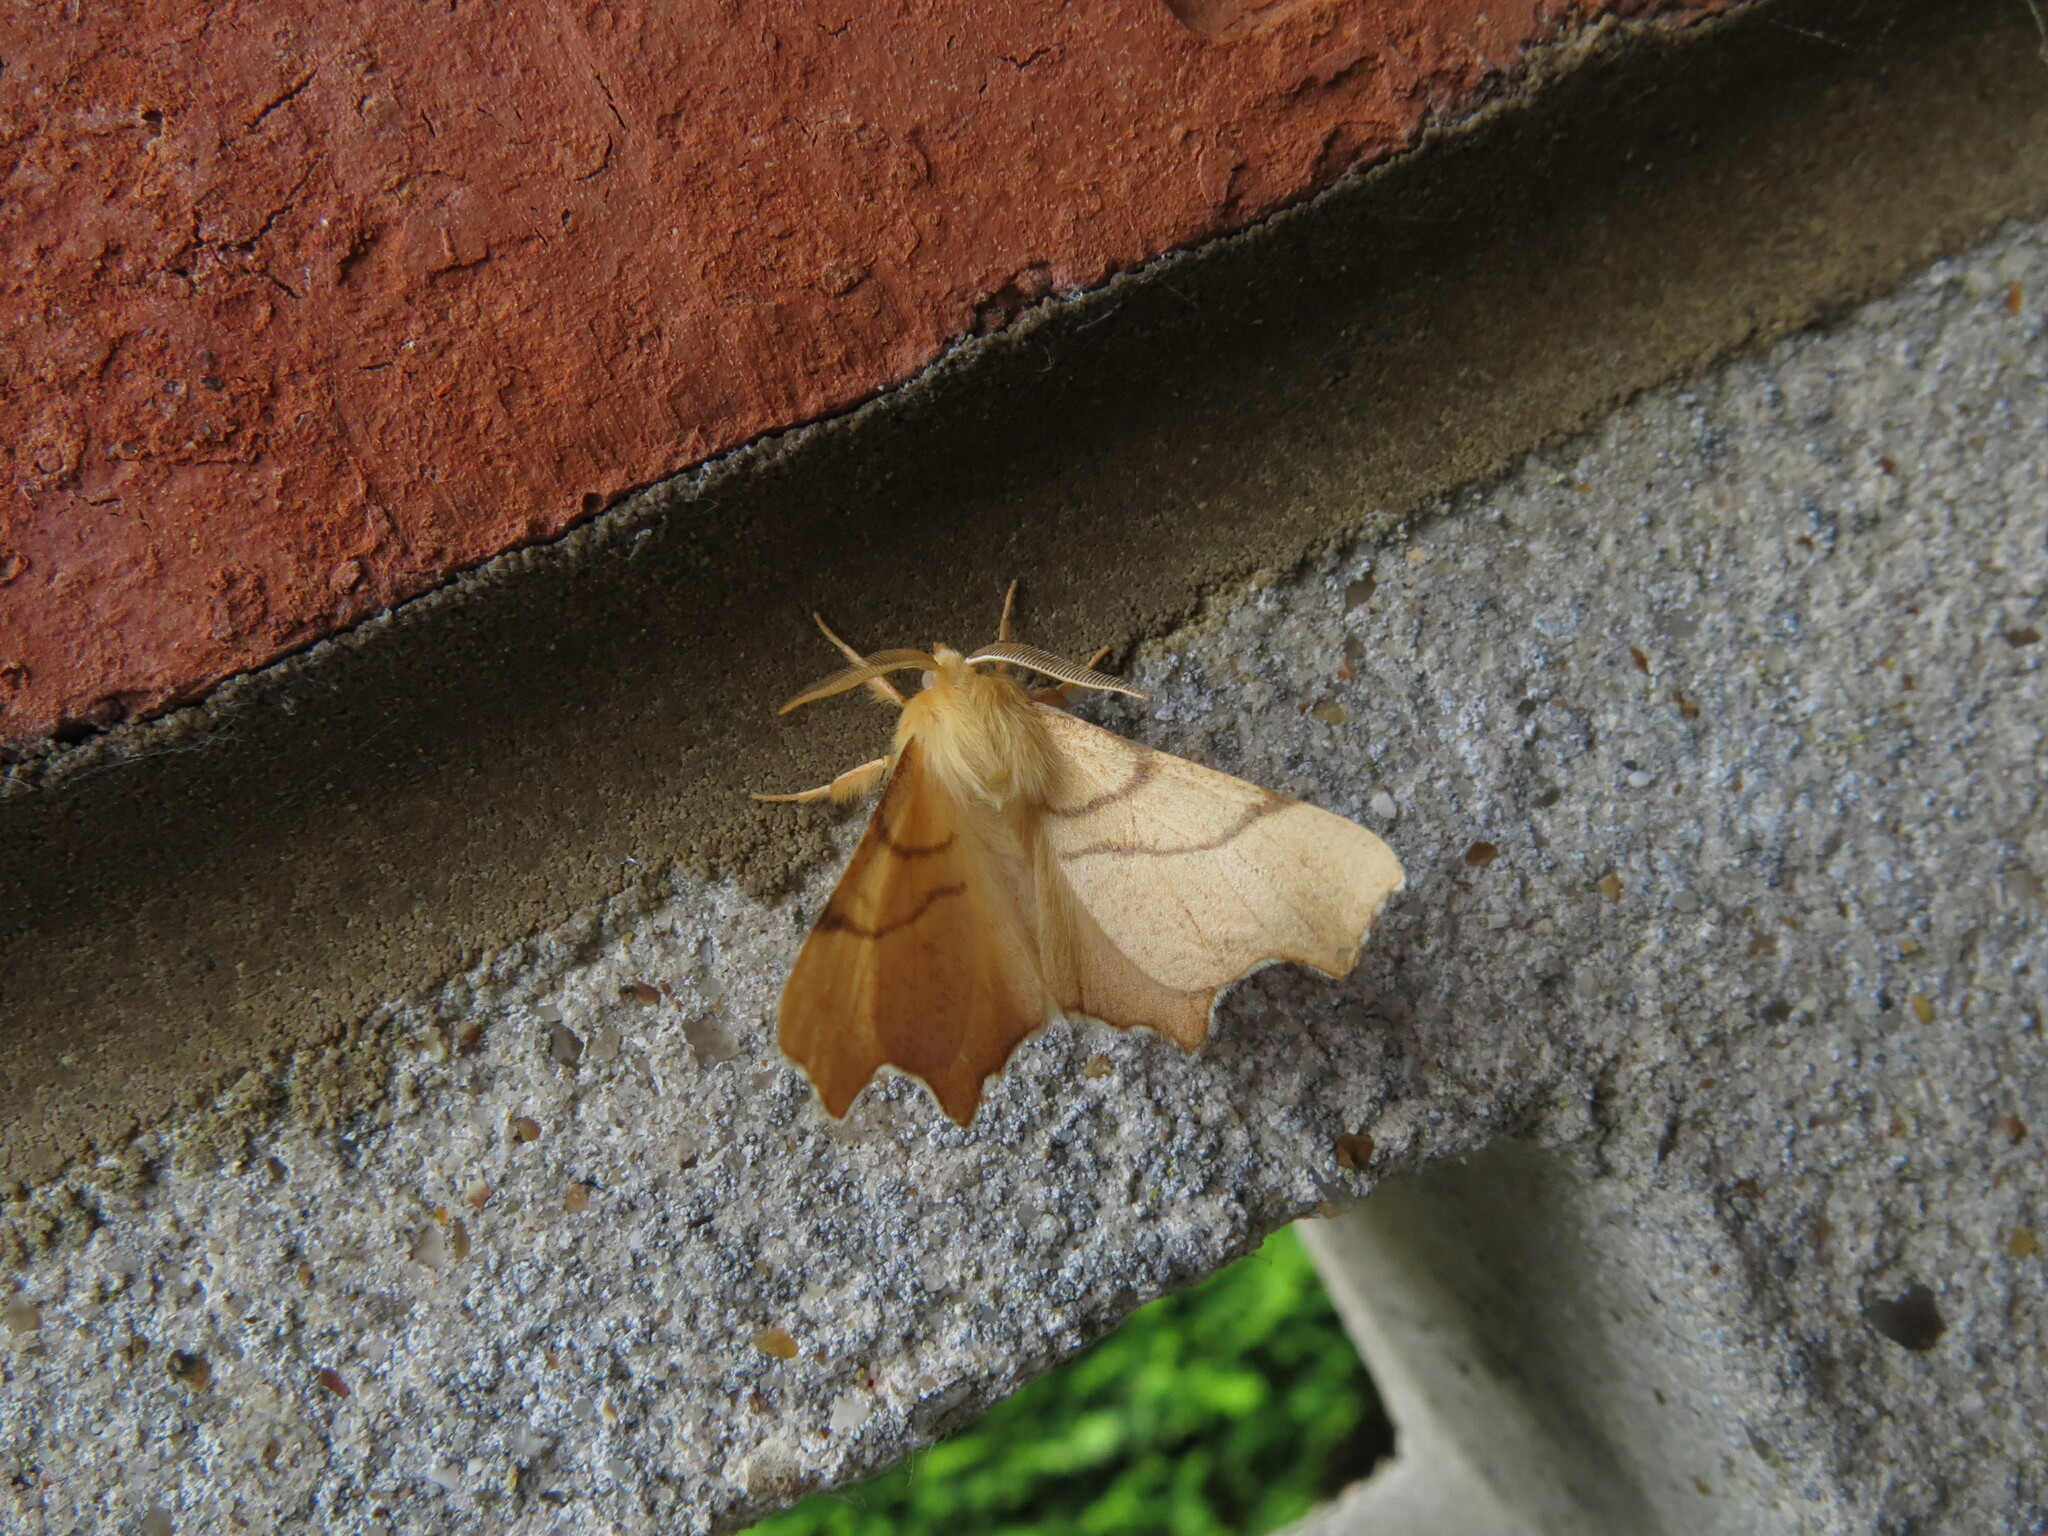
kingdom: Animalia
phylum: Arthropoda
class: Insecta
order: Lepidoptera
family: Geometridae
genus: Ennomos
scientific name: Ennomos erosaria
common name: September thorn
